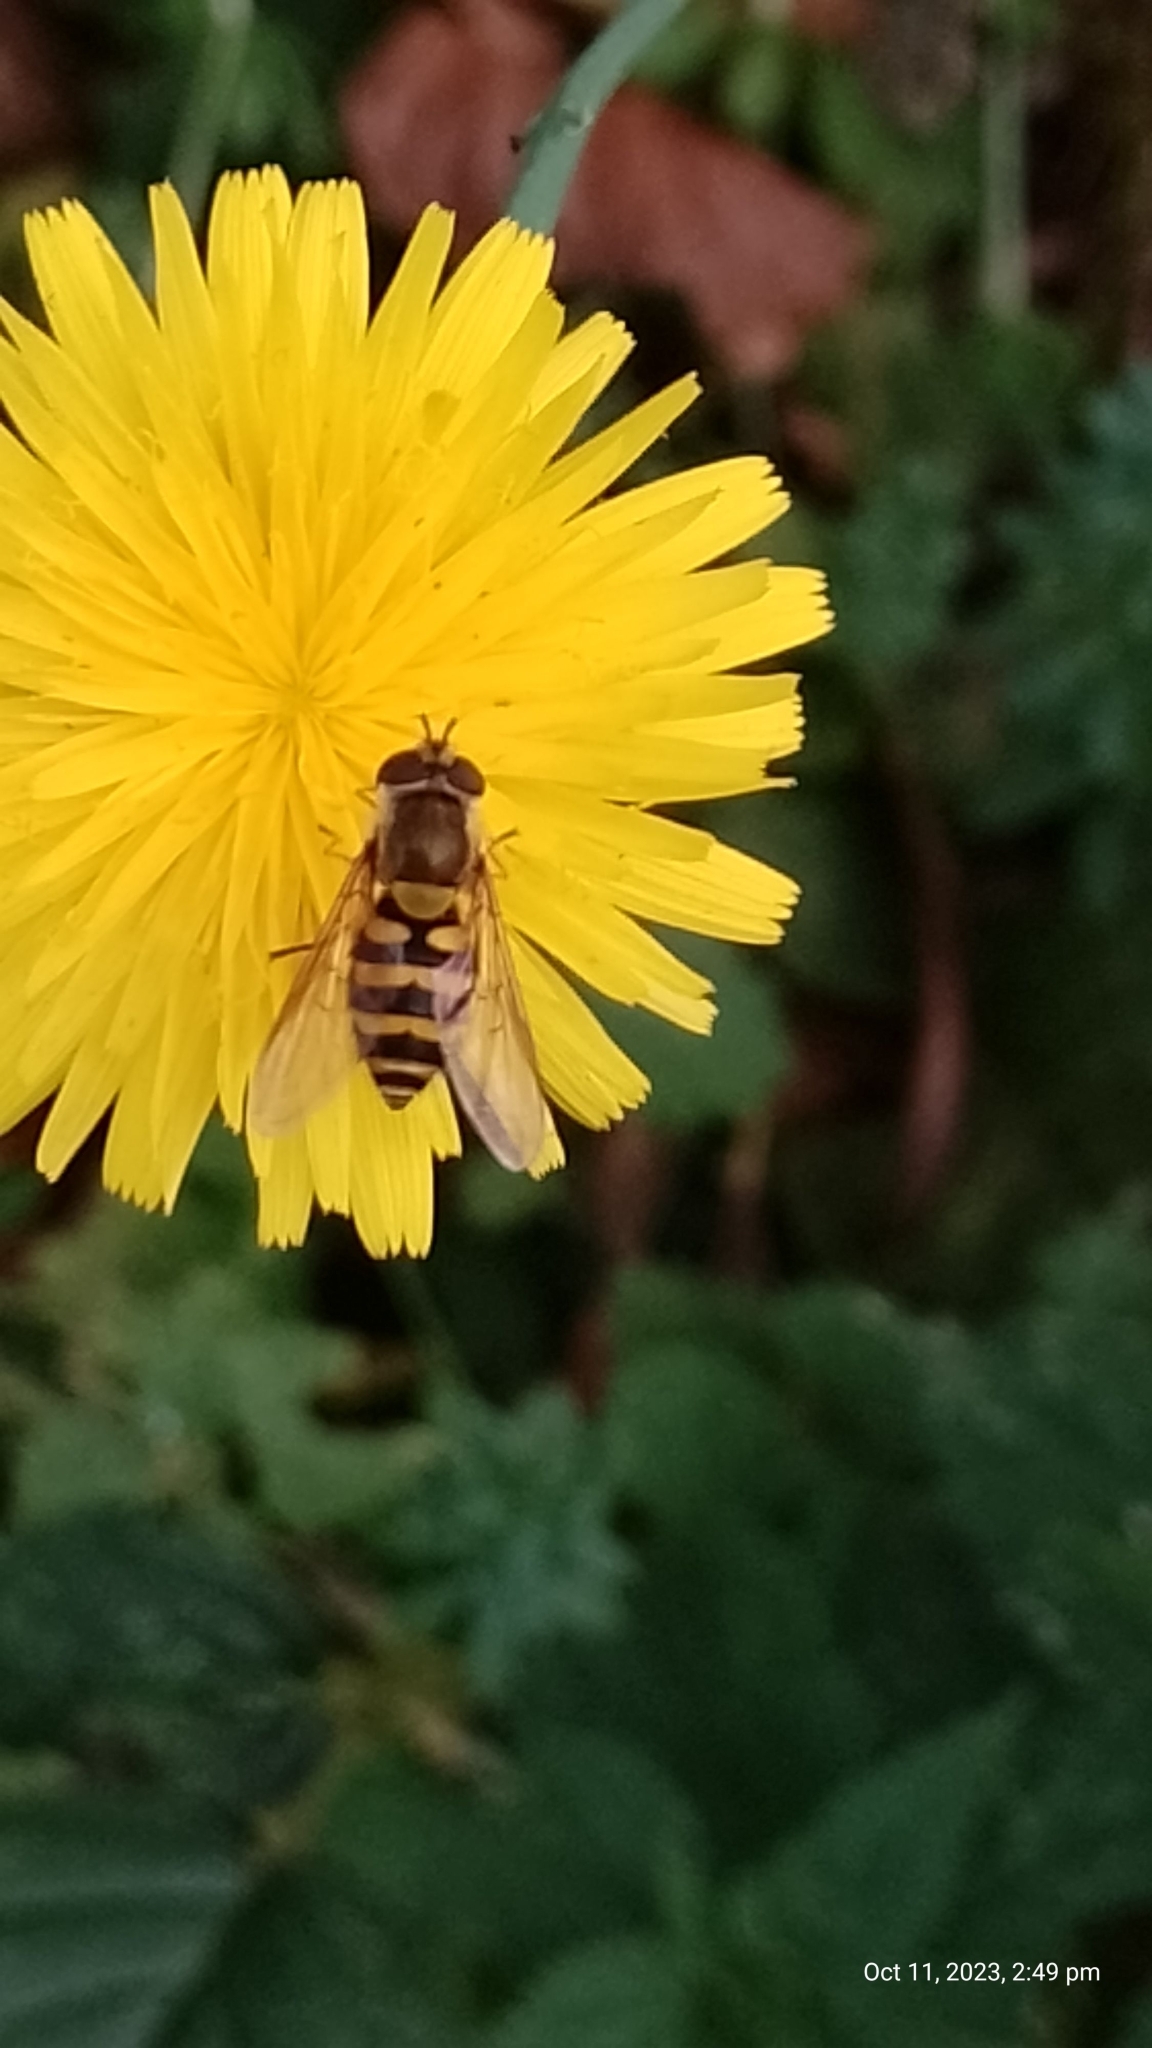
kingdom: Animalia
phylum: Arthropoda
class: Insecta
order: Diptera
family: Syrphidae
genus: Syrphus
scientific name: Syrphus
